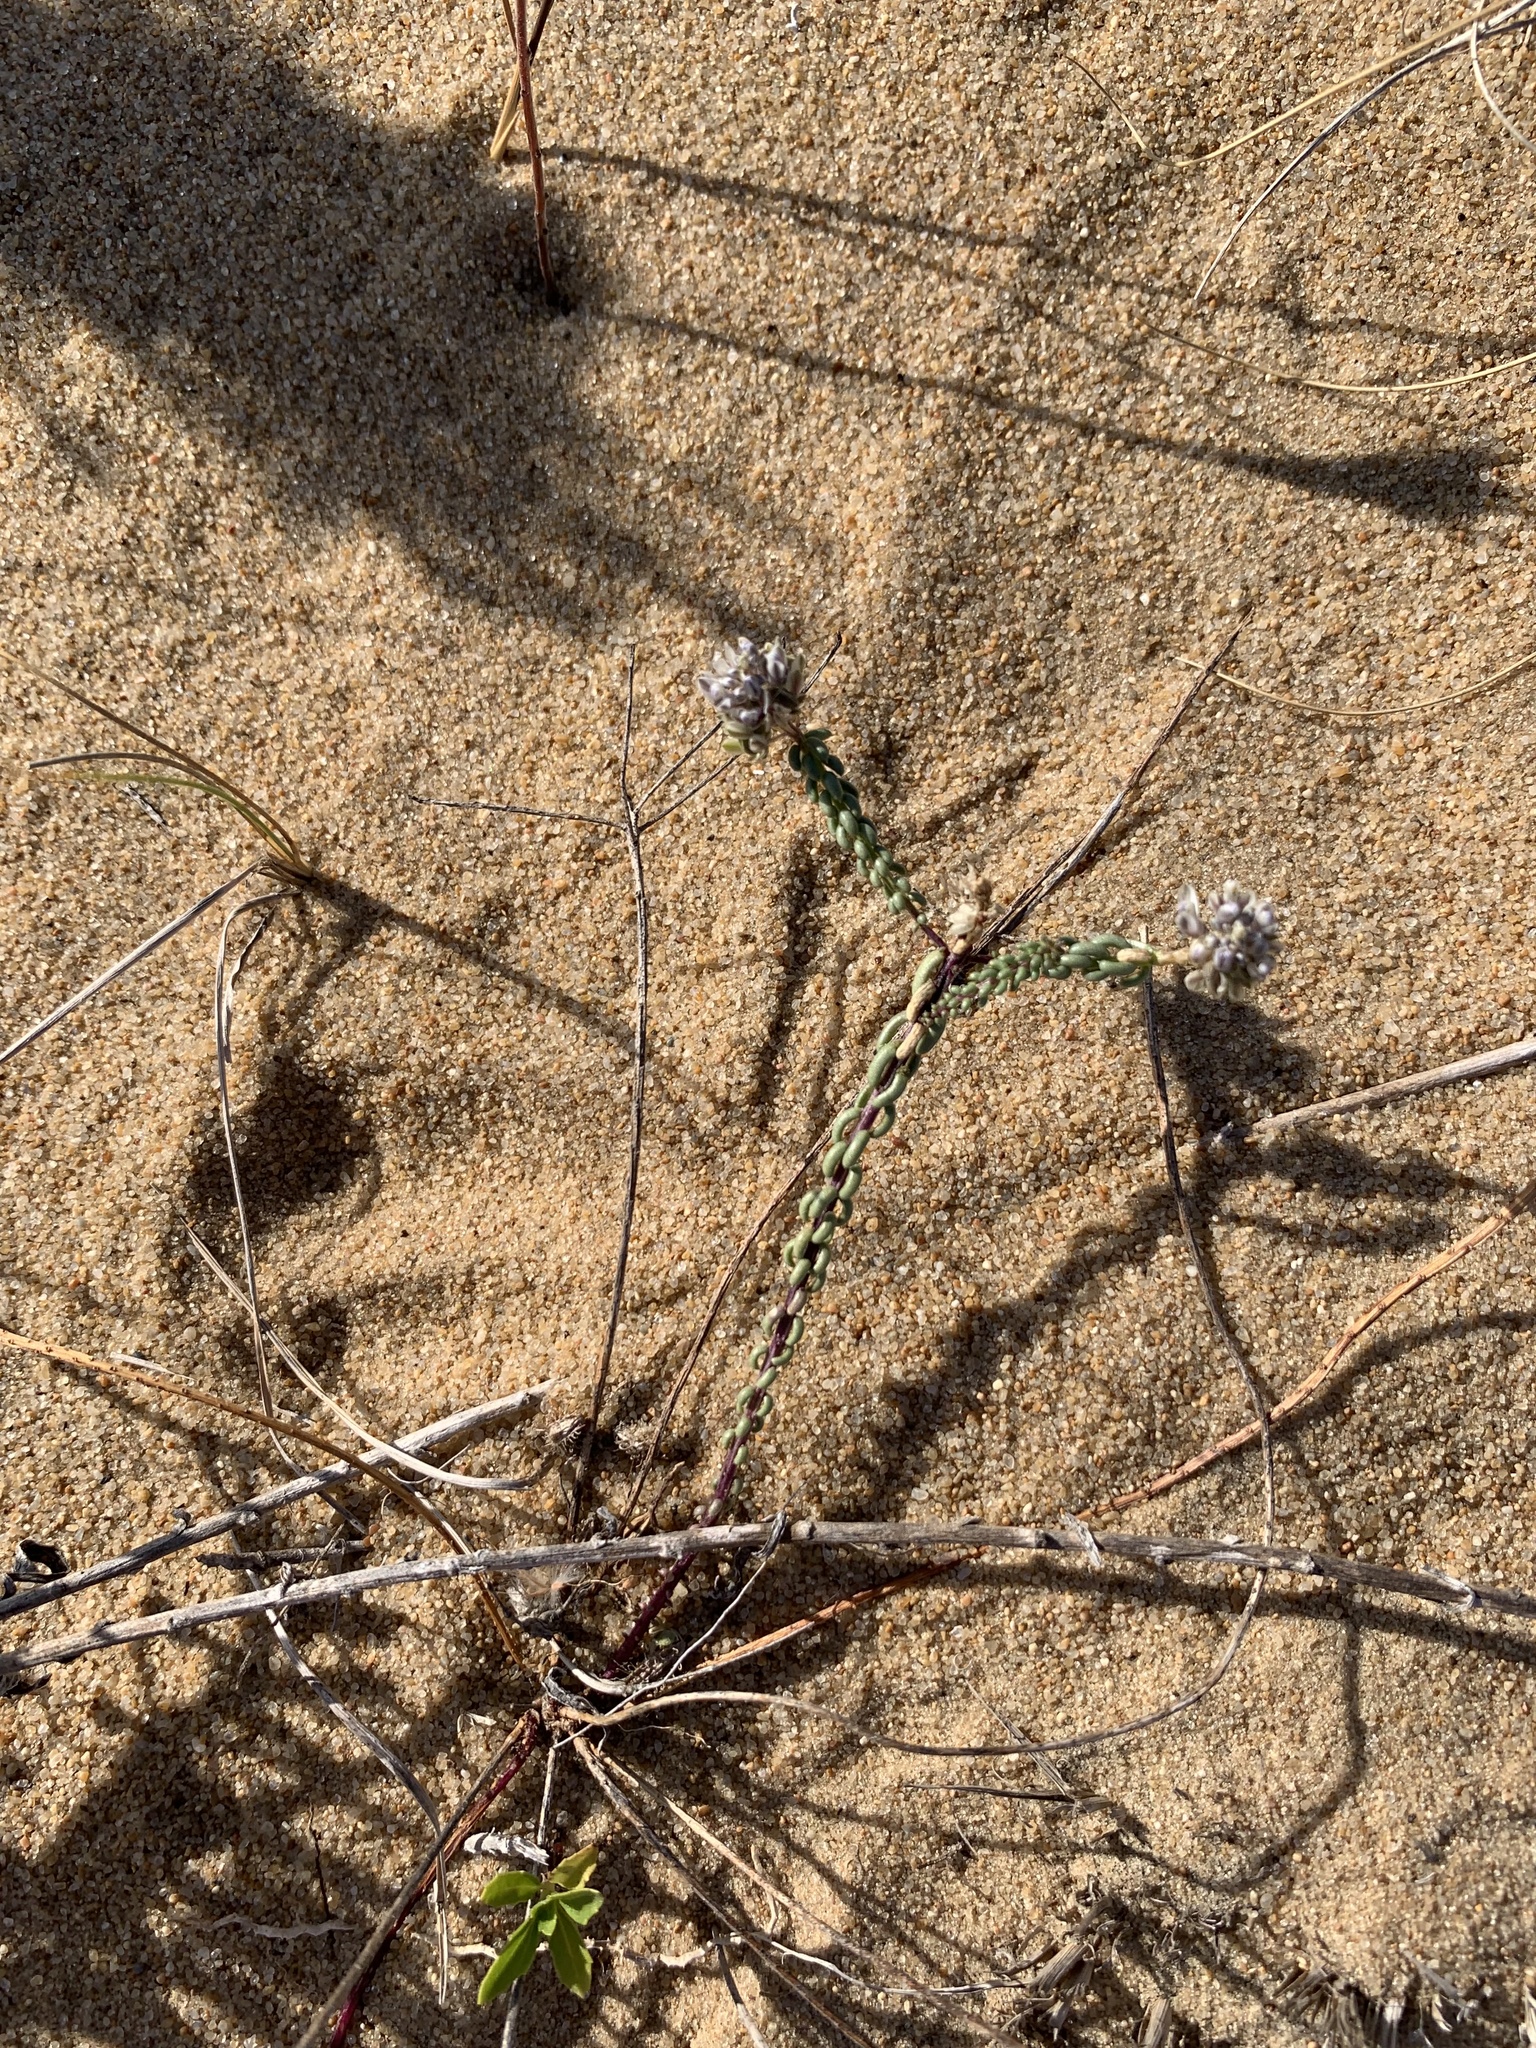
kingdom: Plantae
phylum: Tracheophyta
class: Magnoliopsida
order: Fabales
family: Polygalaceae
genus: Polygala
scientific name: Polygala cyparissias
